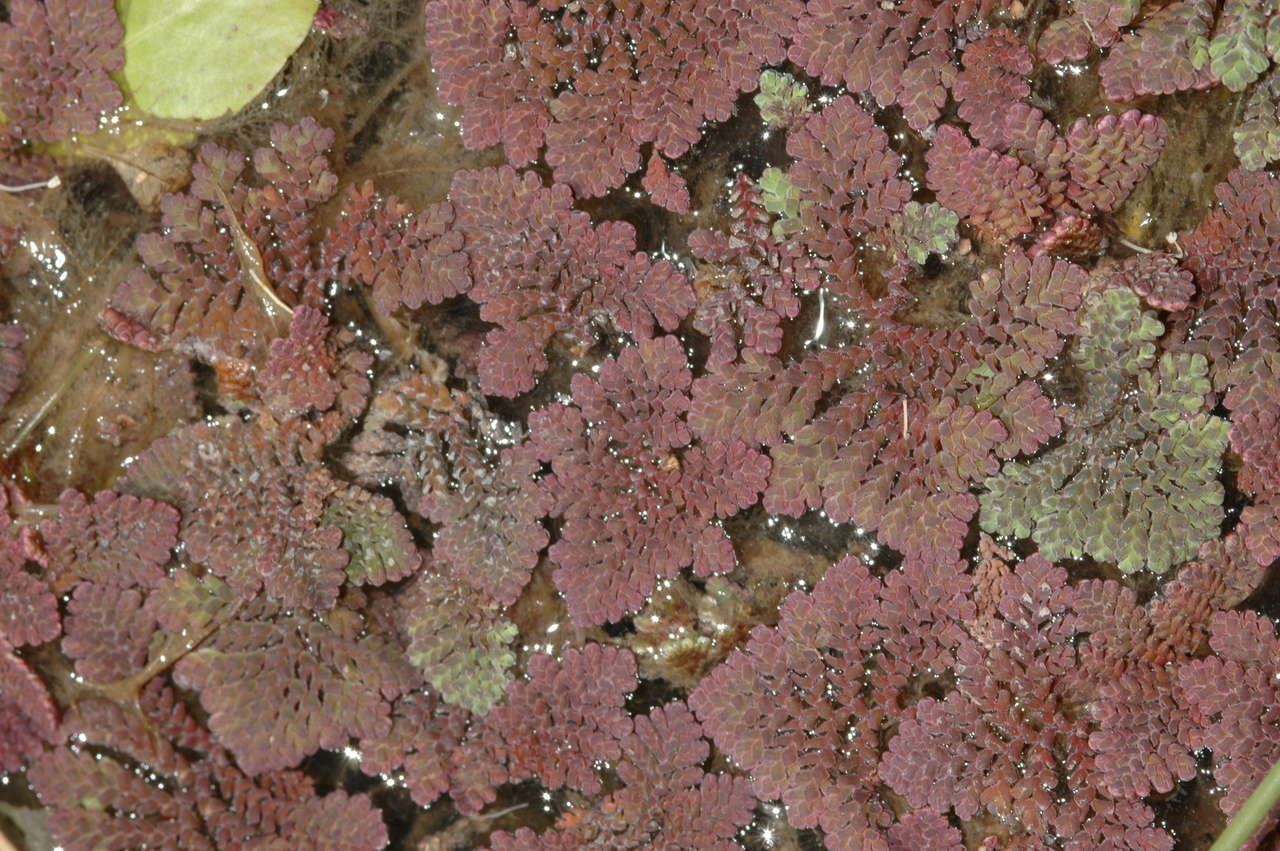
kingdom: Plantae
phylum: Tracheophyta
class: Polypodiopsida
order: Salviniales
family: Salviniaceae
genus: Azolla
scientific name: Azolla pinnata
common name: Ferny azolla
